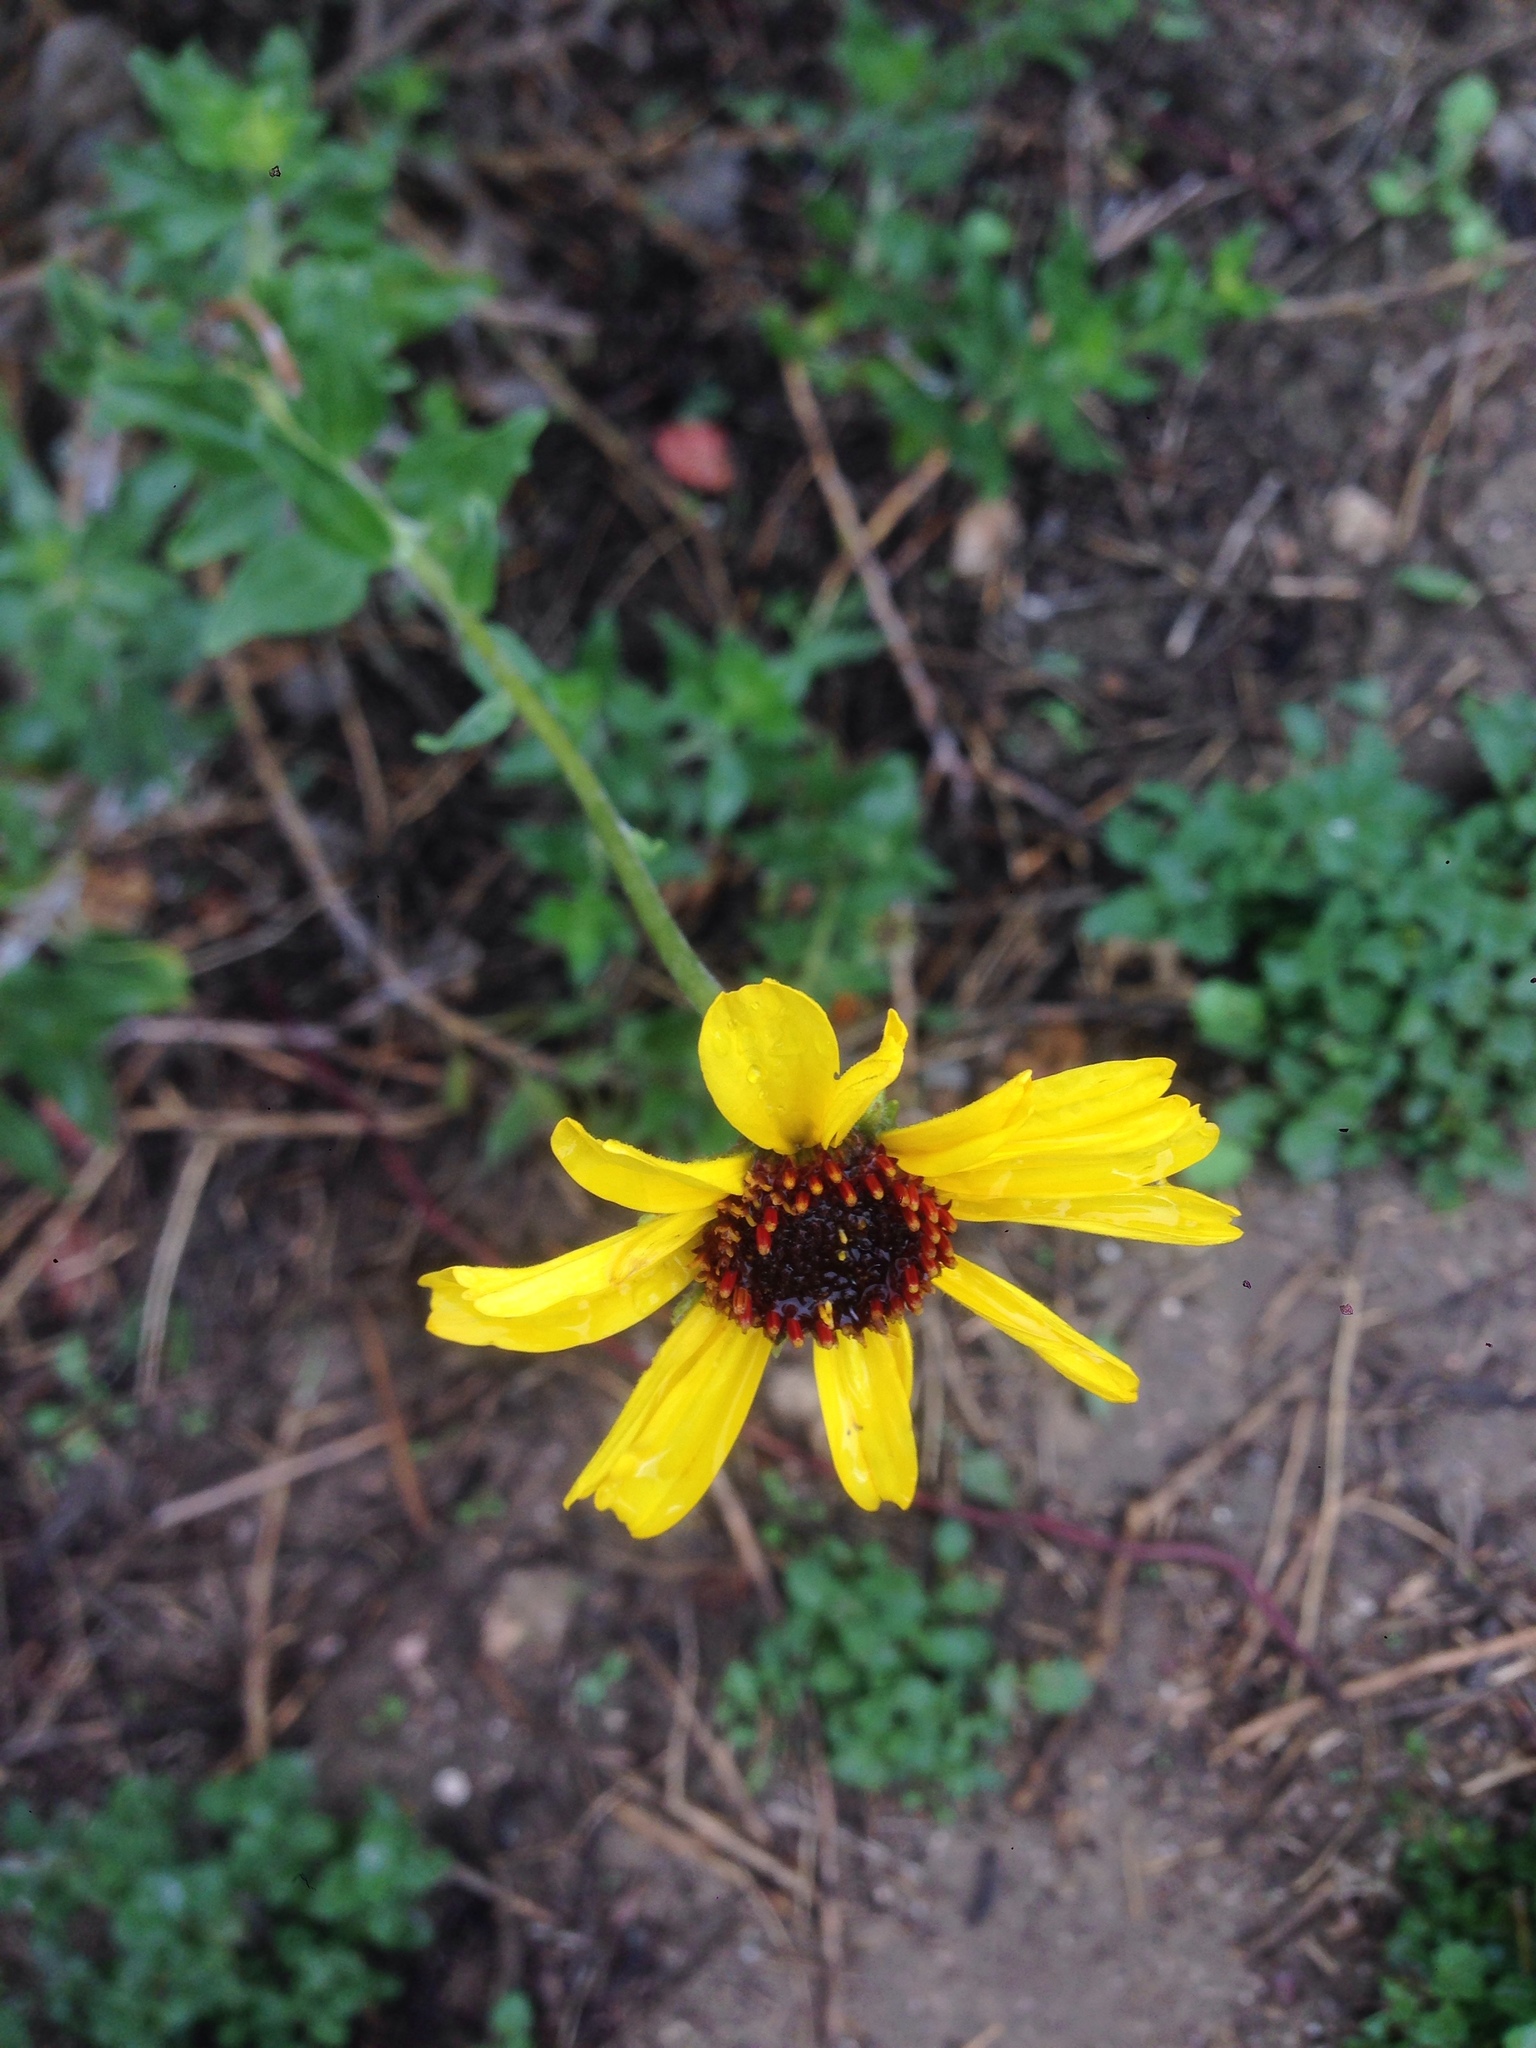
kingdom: Plantae
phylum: Tracheophyta
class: Magnoliopsida
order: Asterales
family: Asteraceae
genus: Encelia
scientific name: Encelia californica
